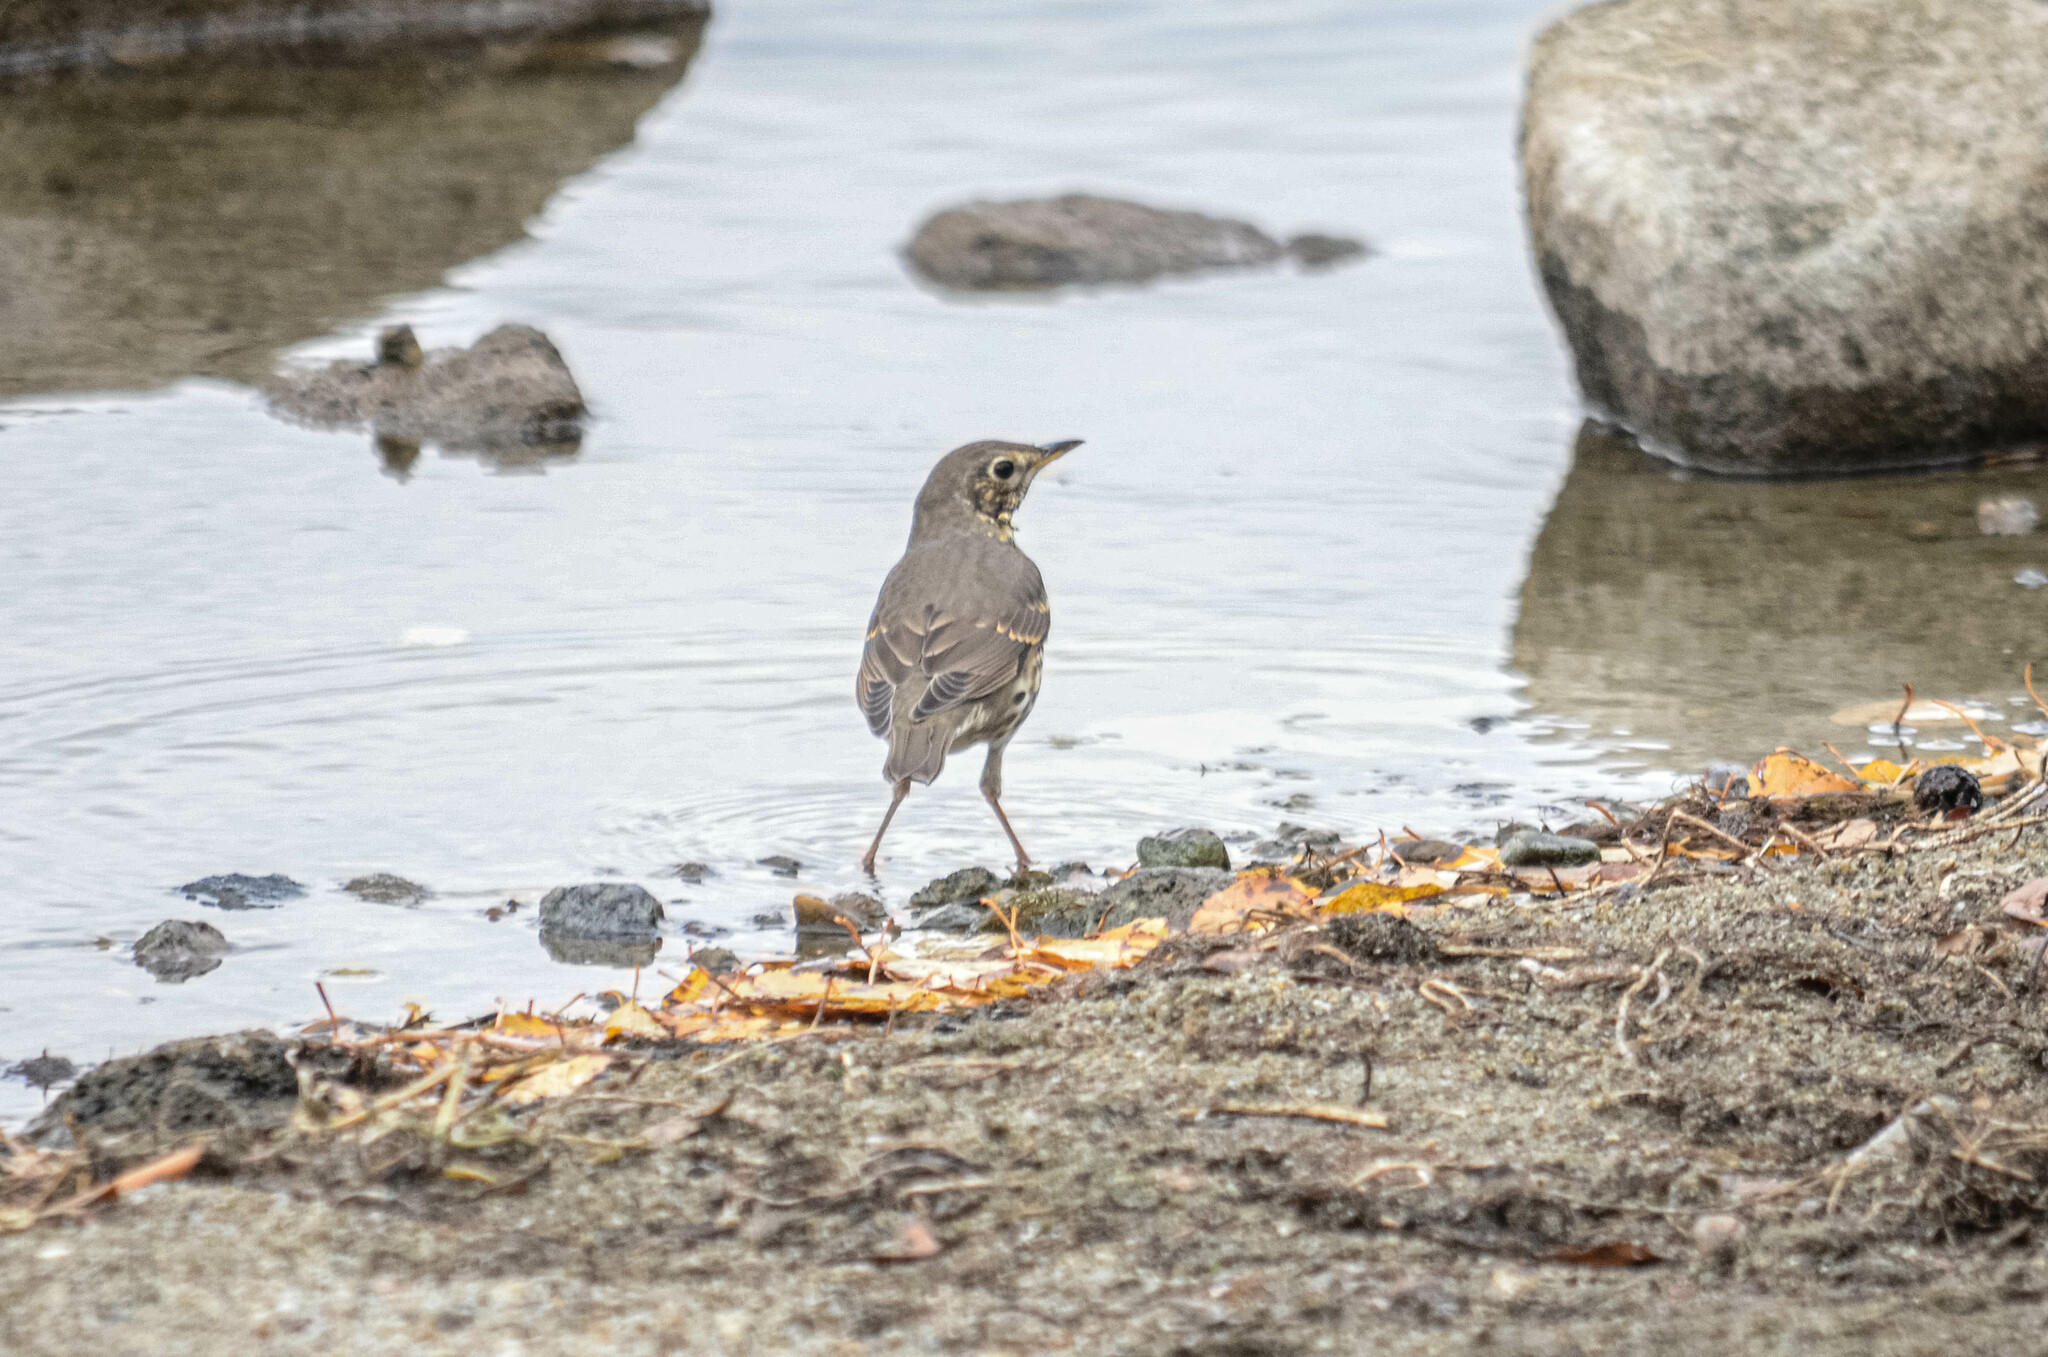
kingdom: Animalia
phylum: Chordata
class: Aves
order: Passeriformes
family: Turdidae
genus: Turdus
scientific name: Turdus philomelos
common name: Song thrush
